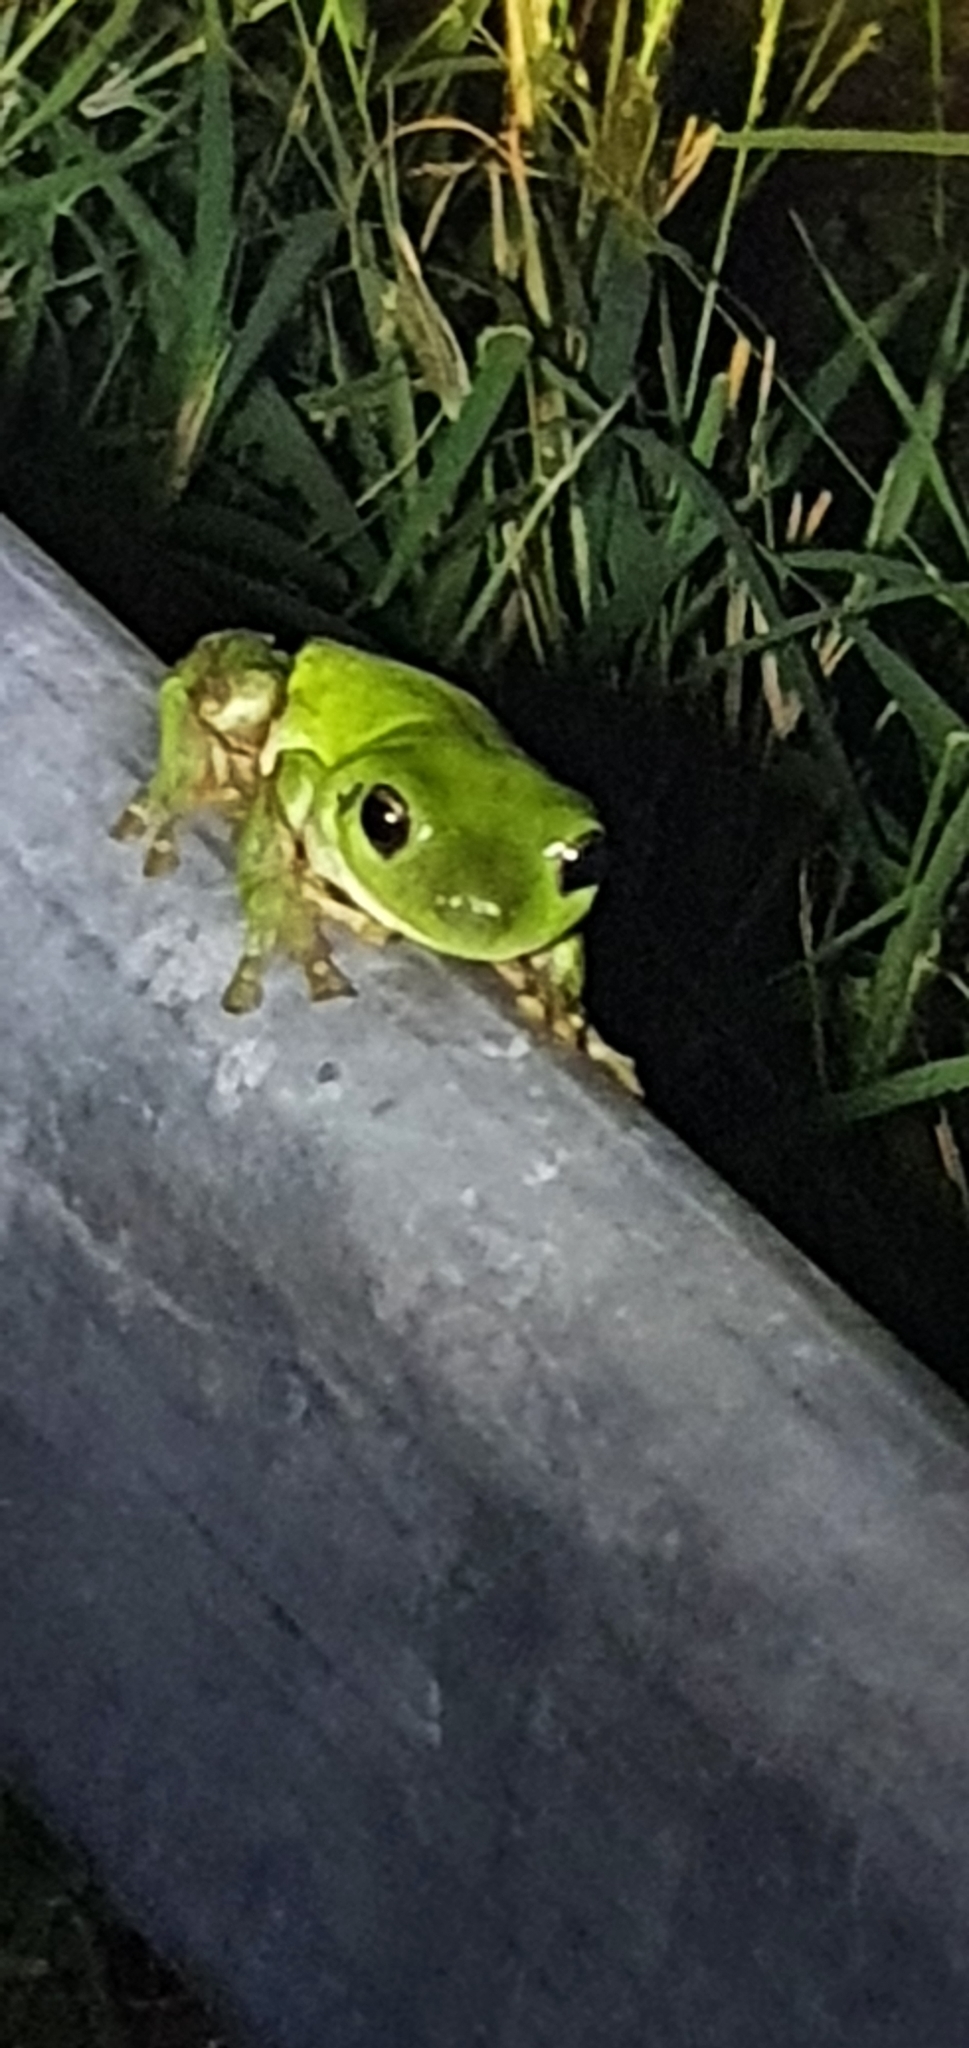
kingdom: Animalia
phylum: Chordata
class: Amphibia
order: Anura
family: Pelodryadidae
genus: Ranoidea
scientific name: Ranoidea caerulea
